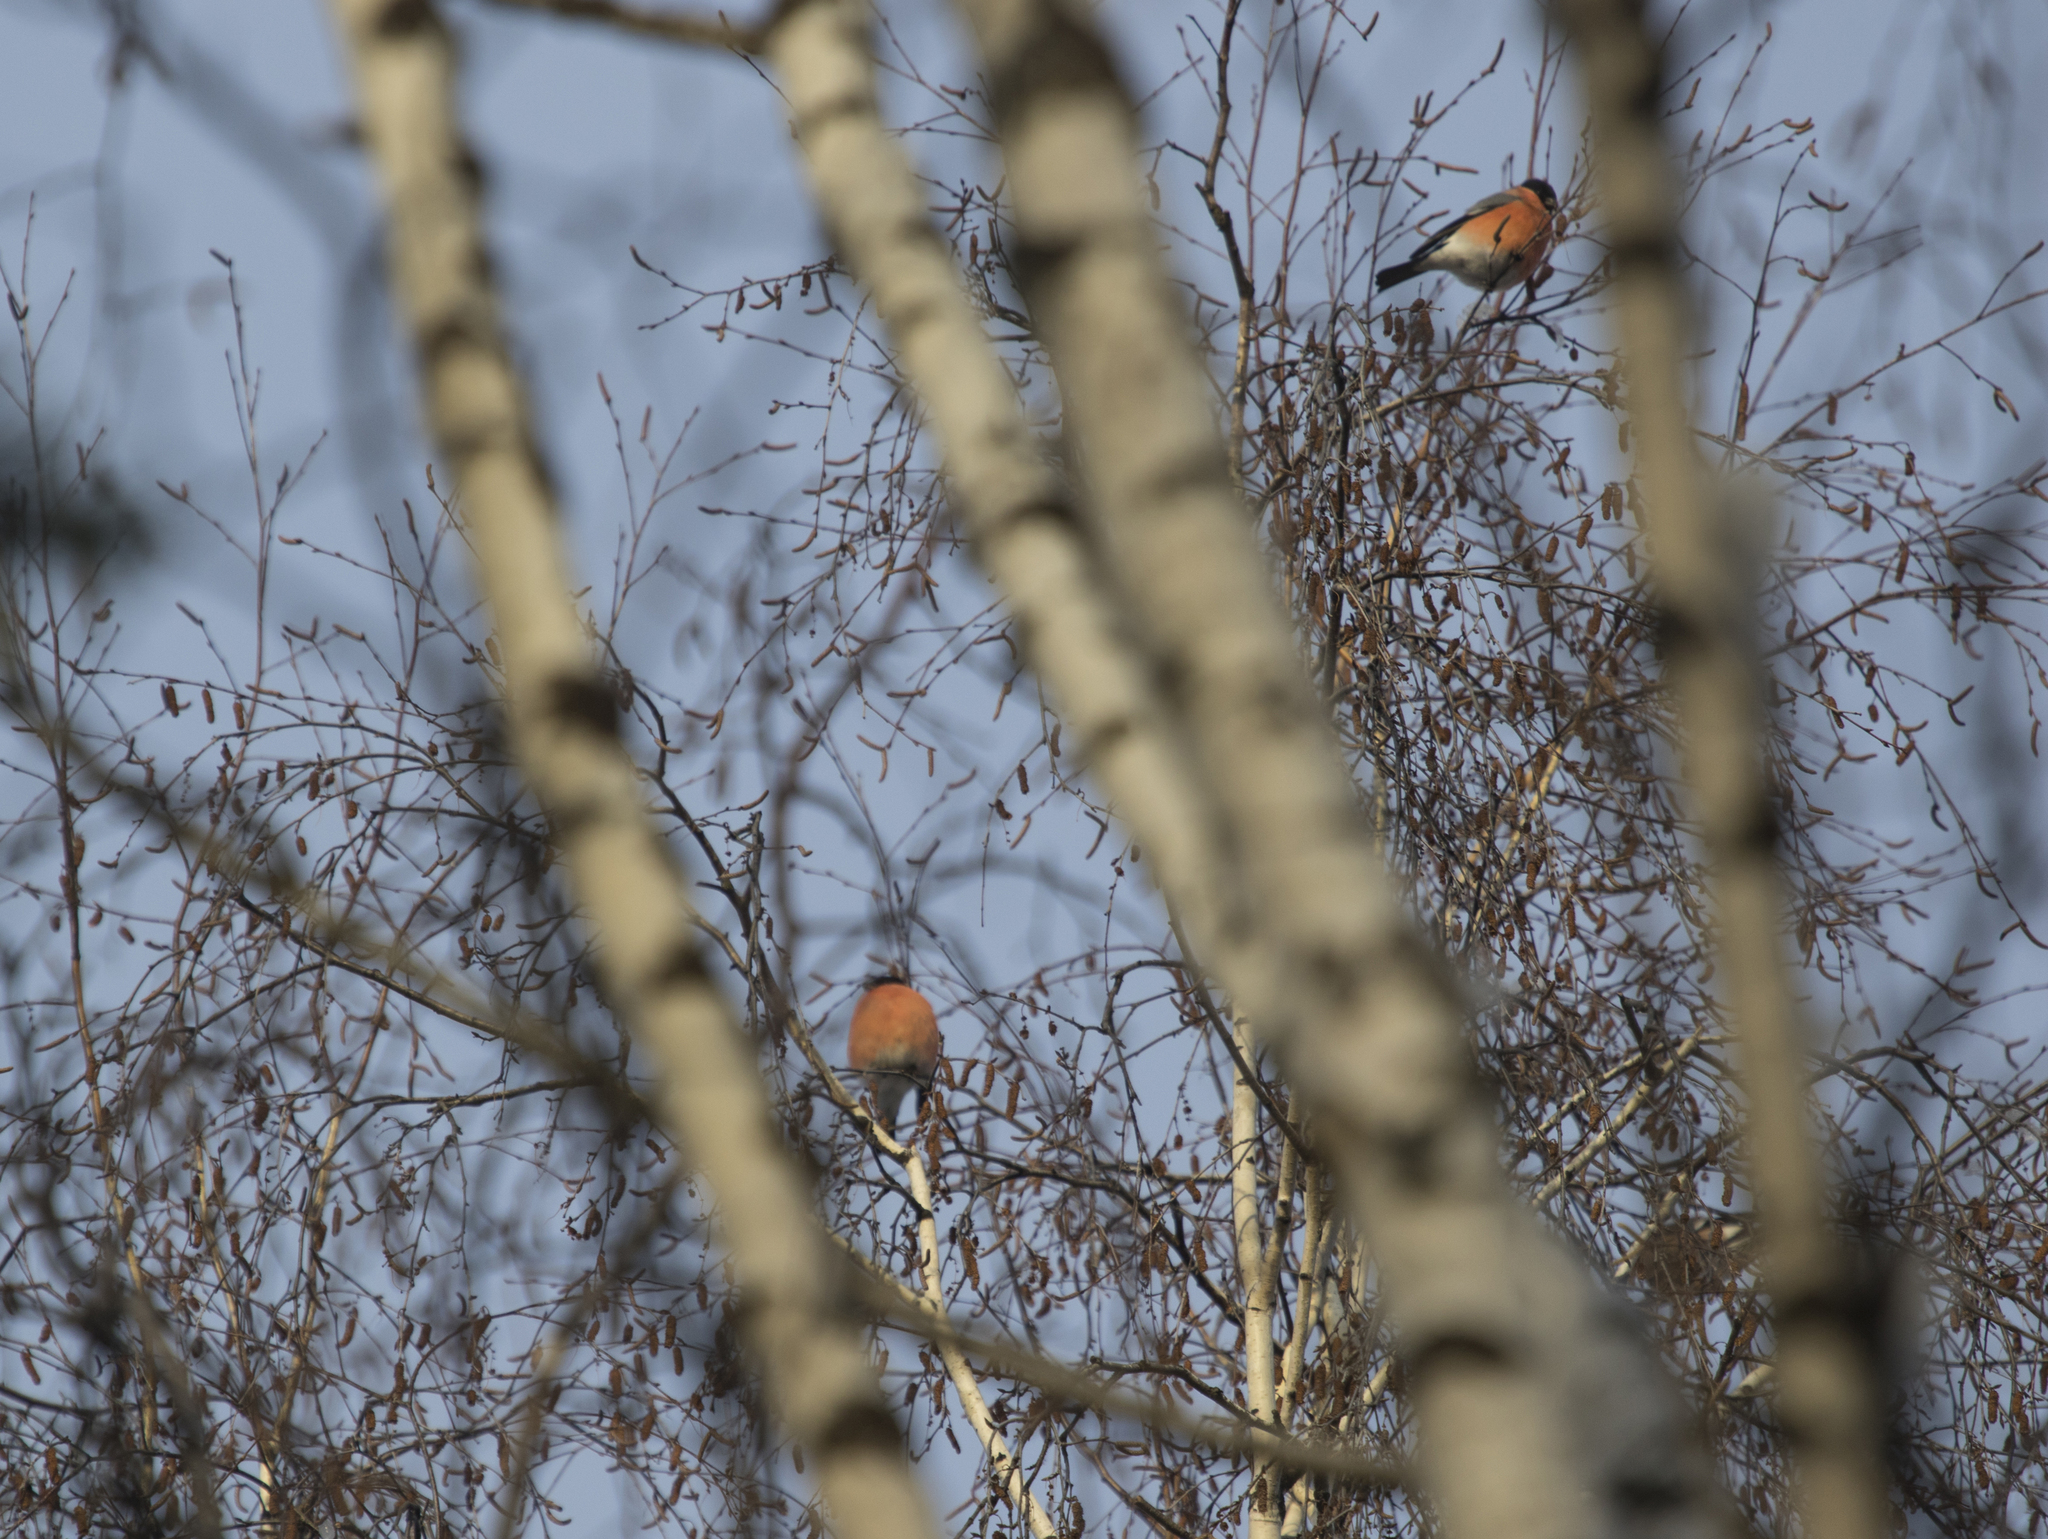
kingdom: Animalia
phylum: Chordata
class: Aves
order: Passeriformes
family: Fringillidae
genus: Pyrrhula
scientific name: Pyrrhula pyrrhula
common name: Eurasian bullfinch
